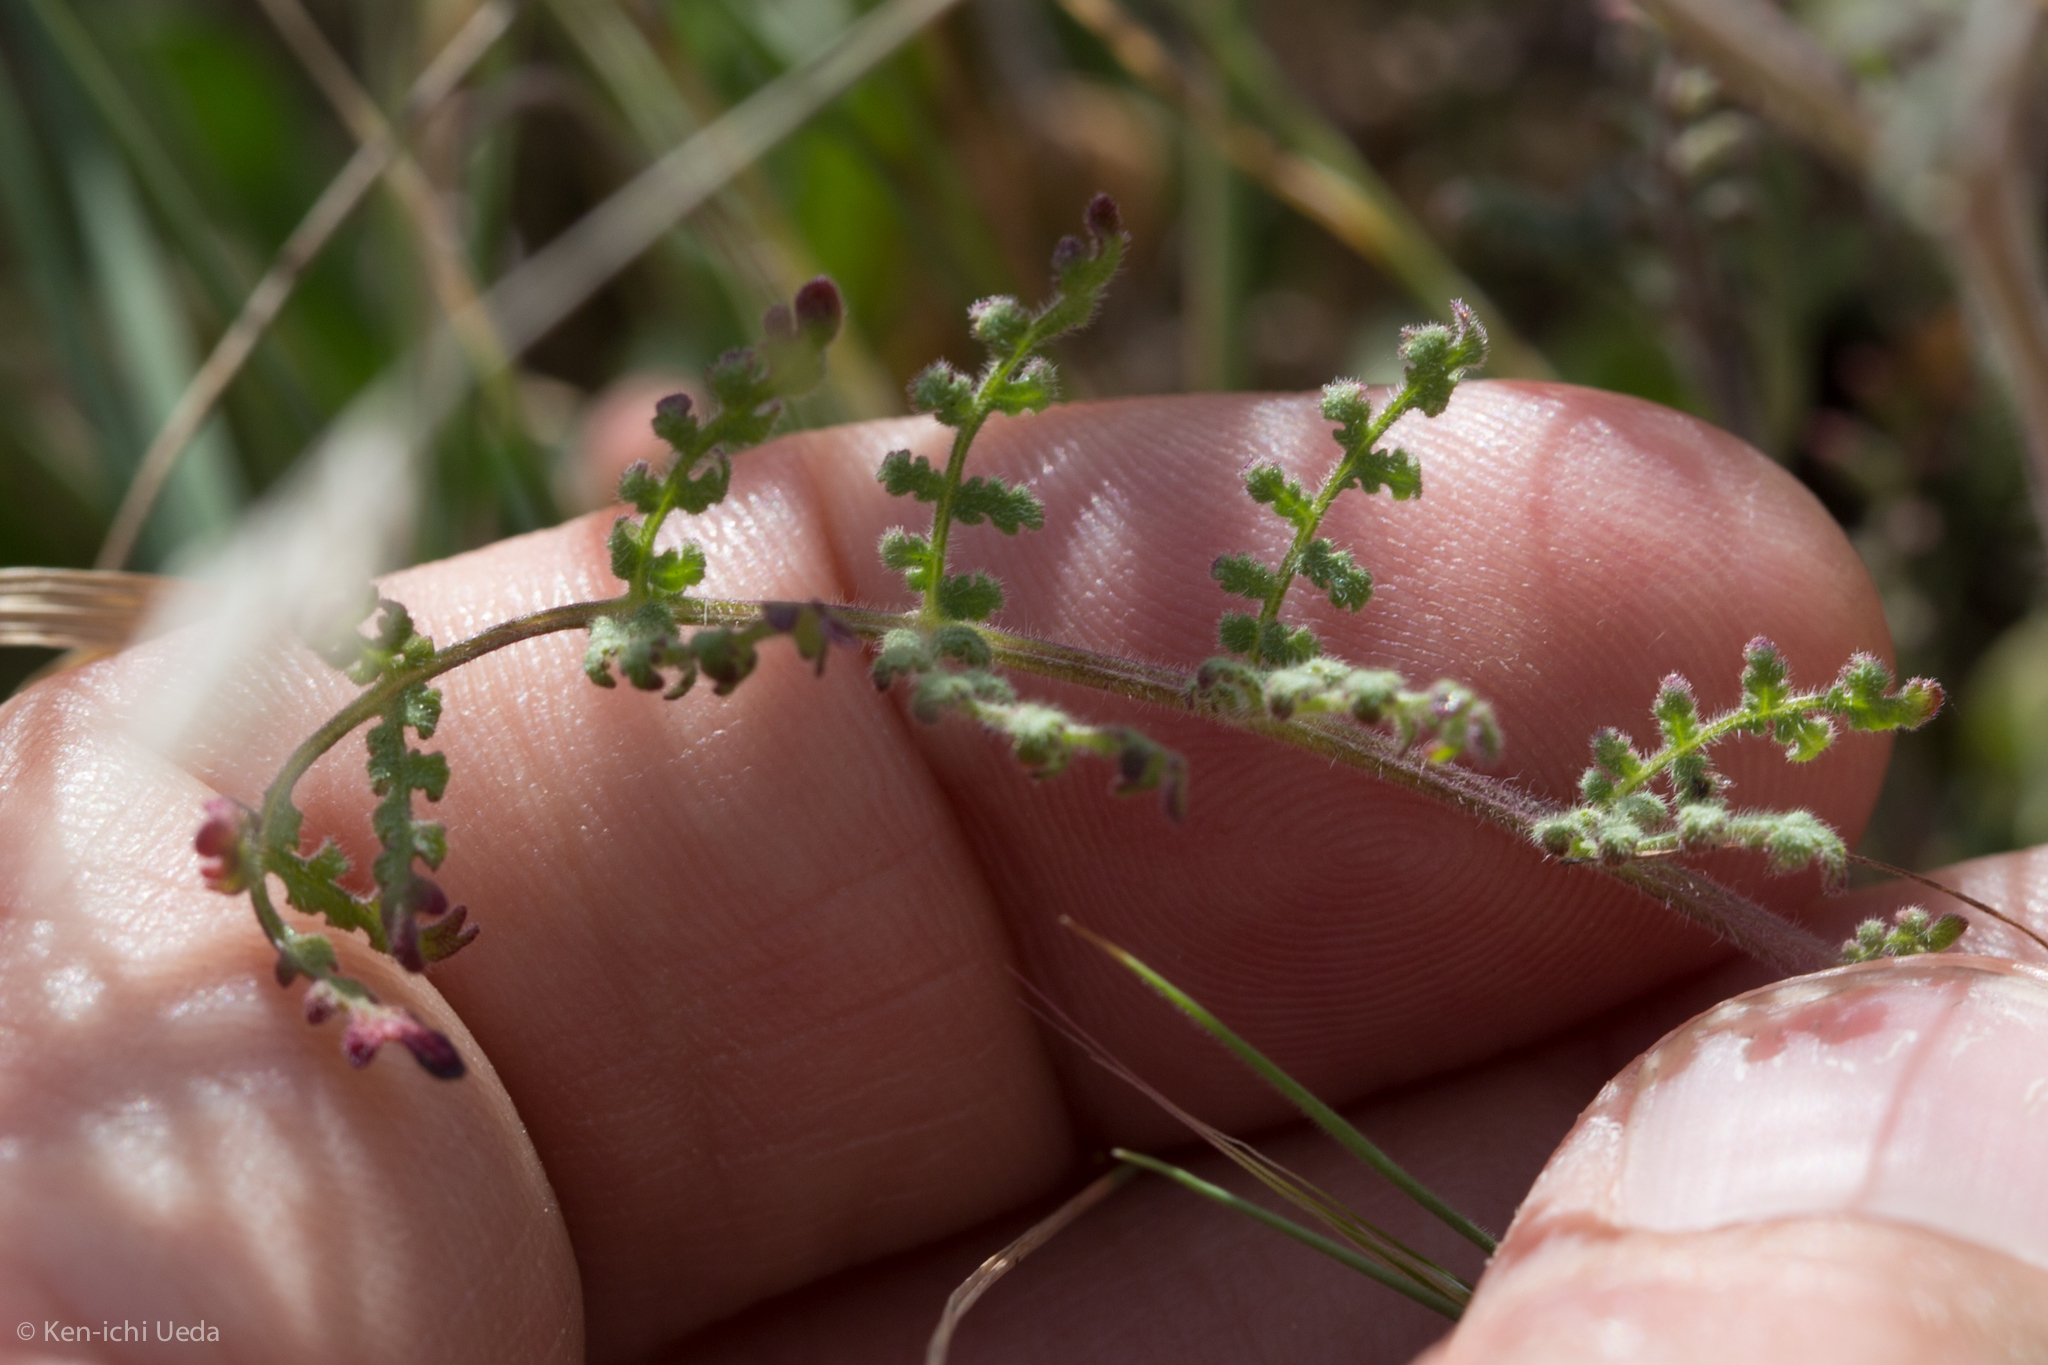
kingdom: Plantae
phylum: Tracheophyta
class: Magnoliopsida
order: Boraginales
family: Hydrophyllaceae
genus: Phacelia
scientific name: Phacelia distans
